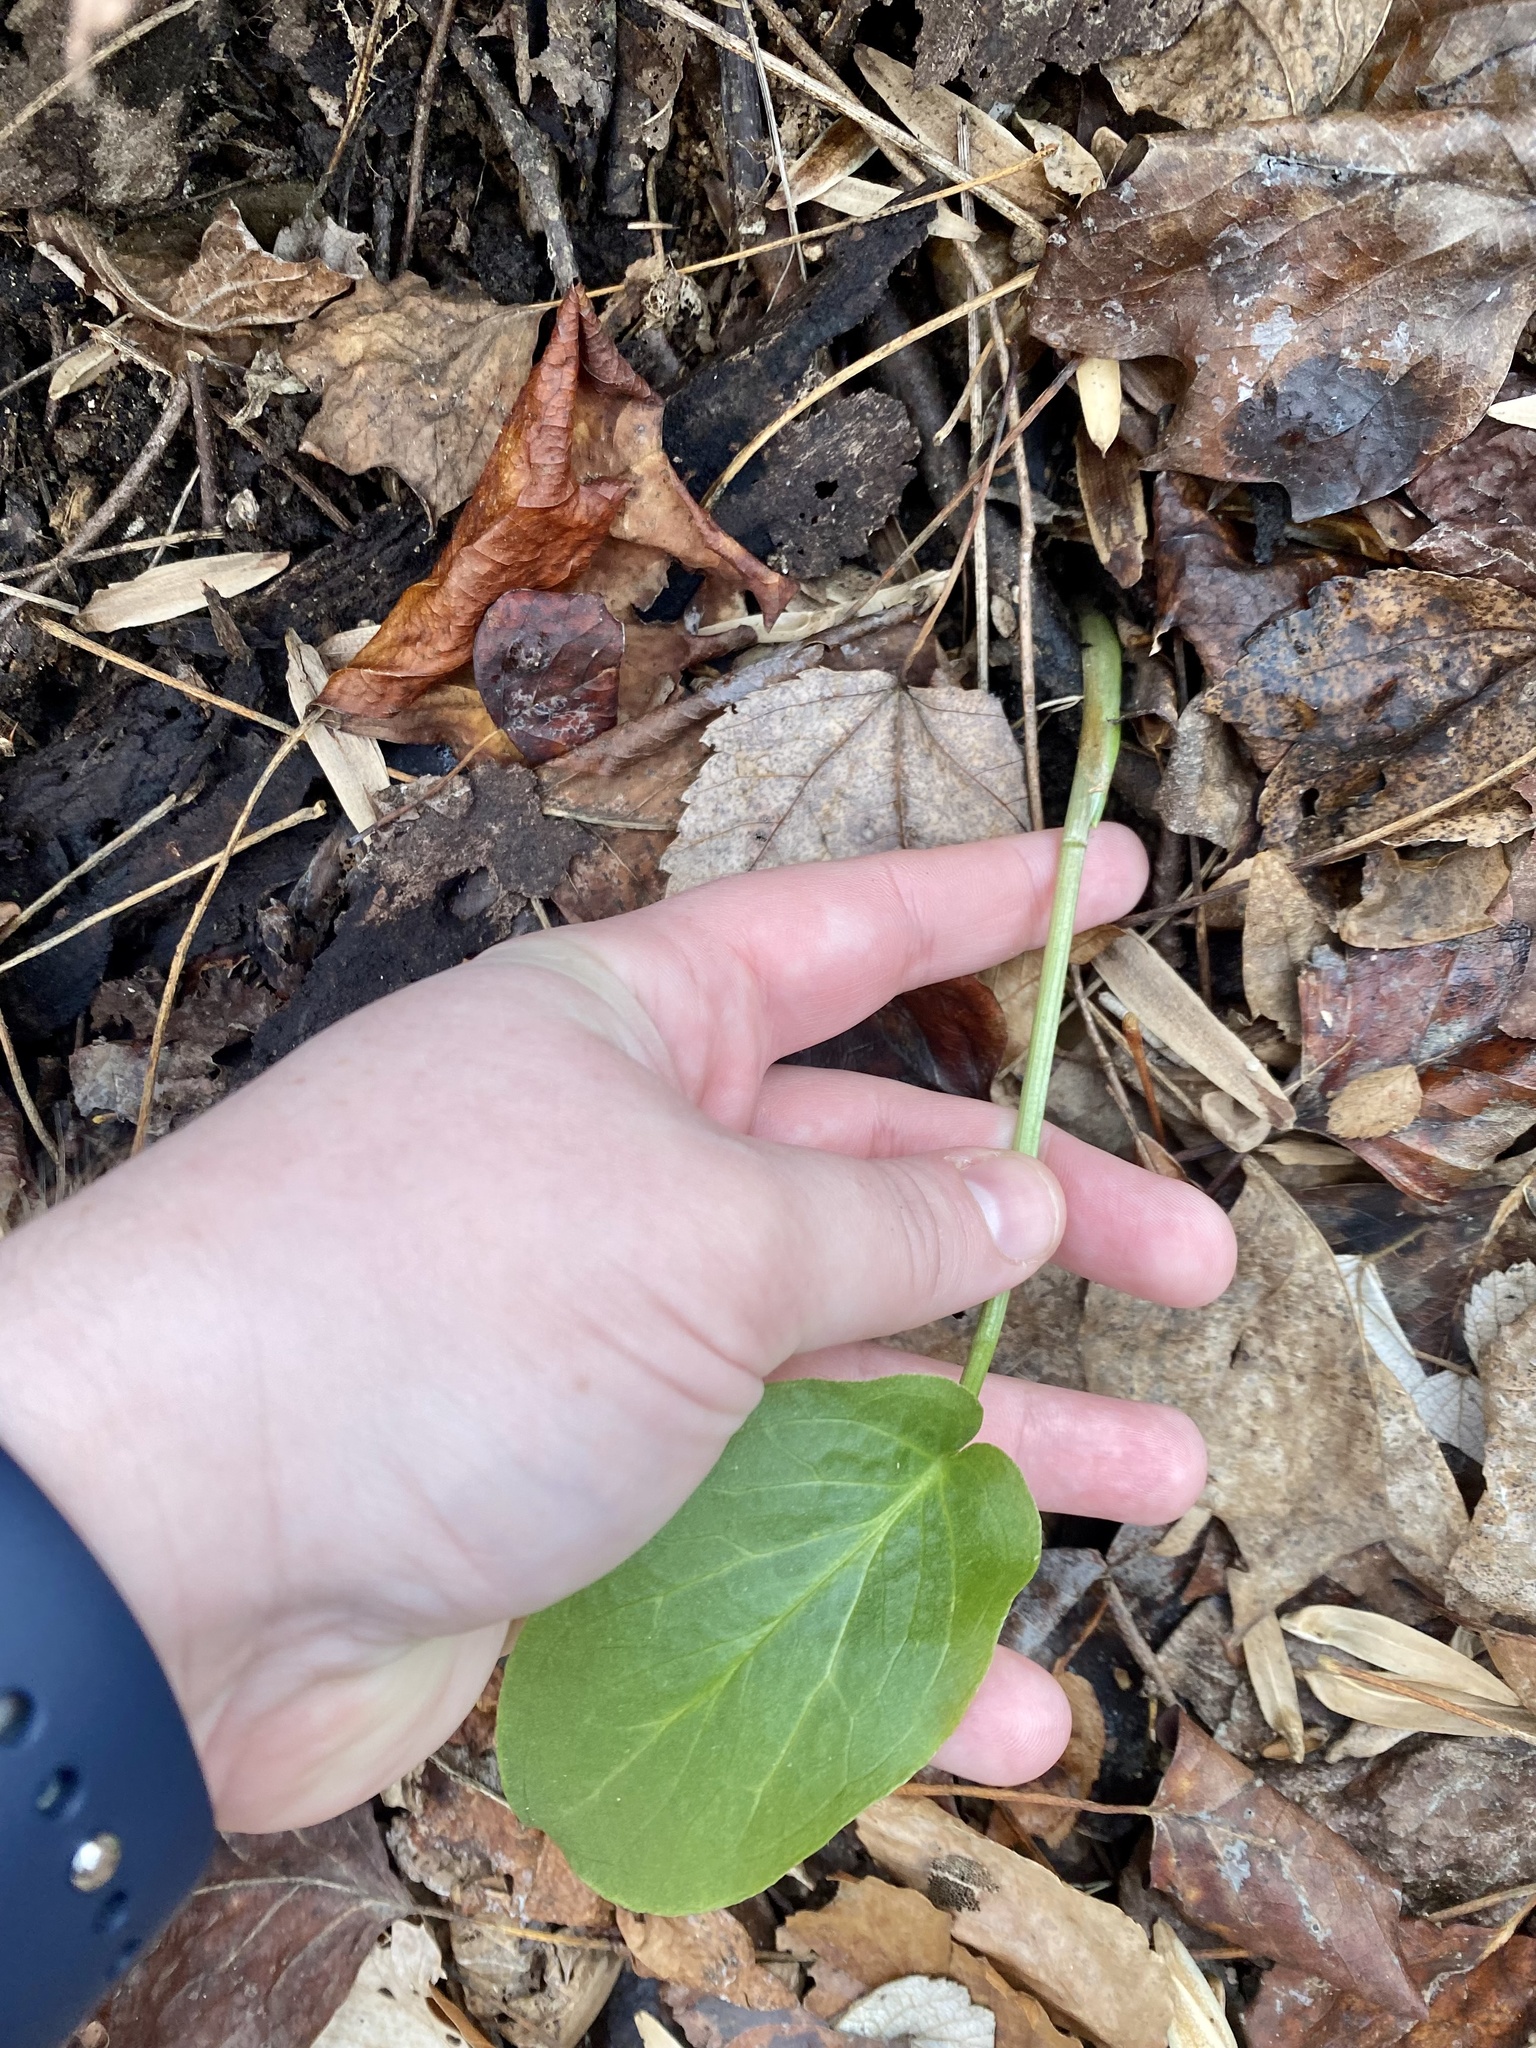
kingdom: Plantae
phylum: Tracheophyta
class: Liliopsida
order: Alismatales
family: Araceae
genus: Arum
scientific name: Arum italicum
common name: Italian lords-and-ladies
